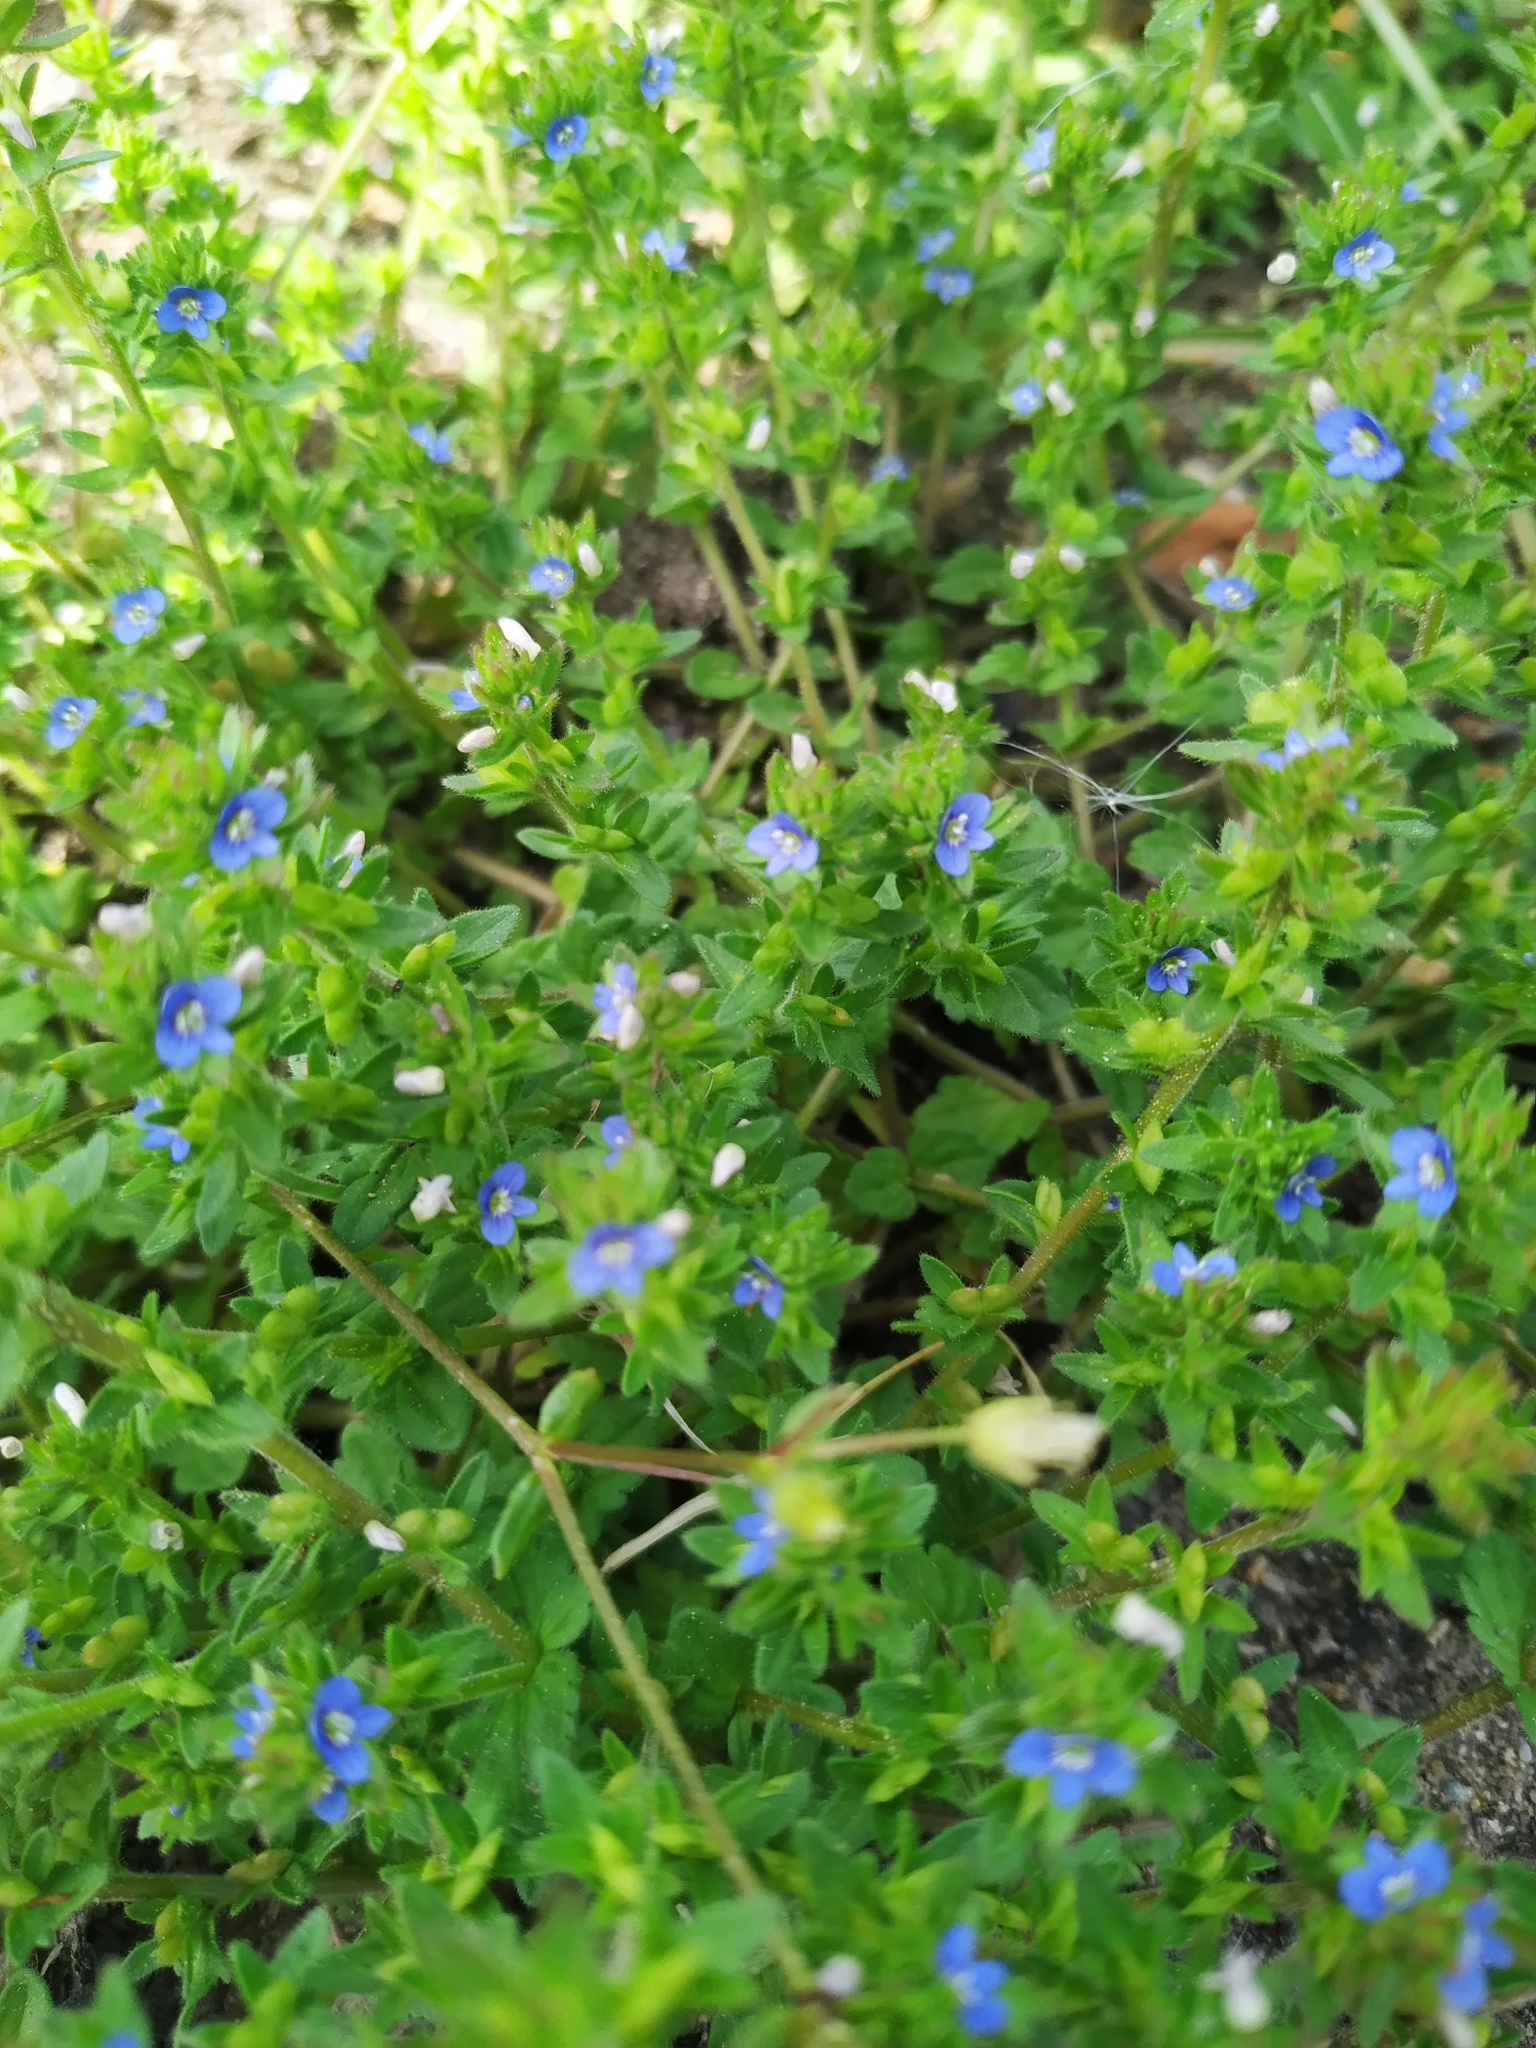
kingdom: Plantae
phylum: Tracheophyta
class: Magnoliopsida
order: Lamiales
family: Plantaginaceae
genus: Veronica
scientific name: Veronica arvensis
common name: Corn speedwell
